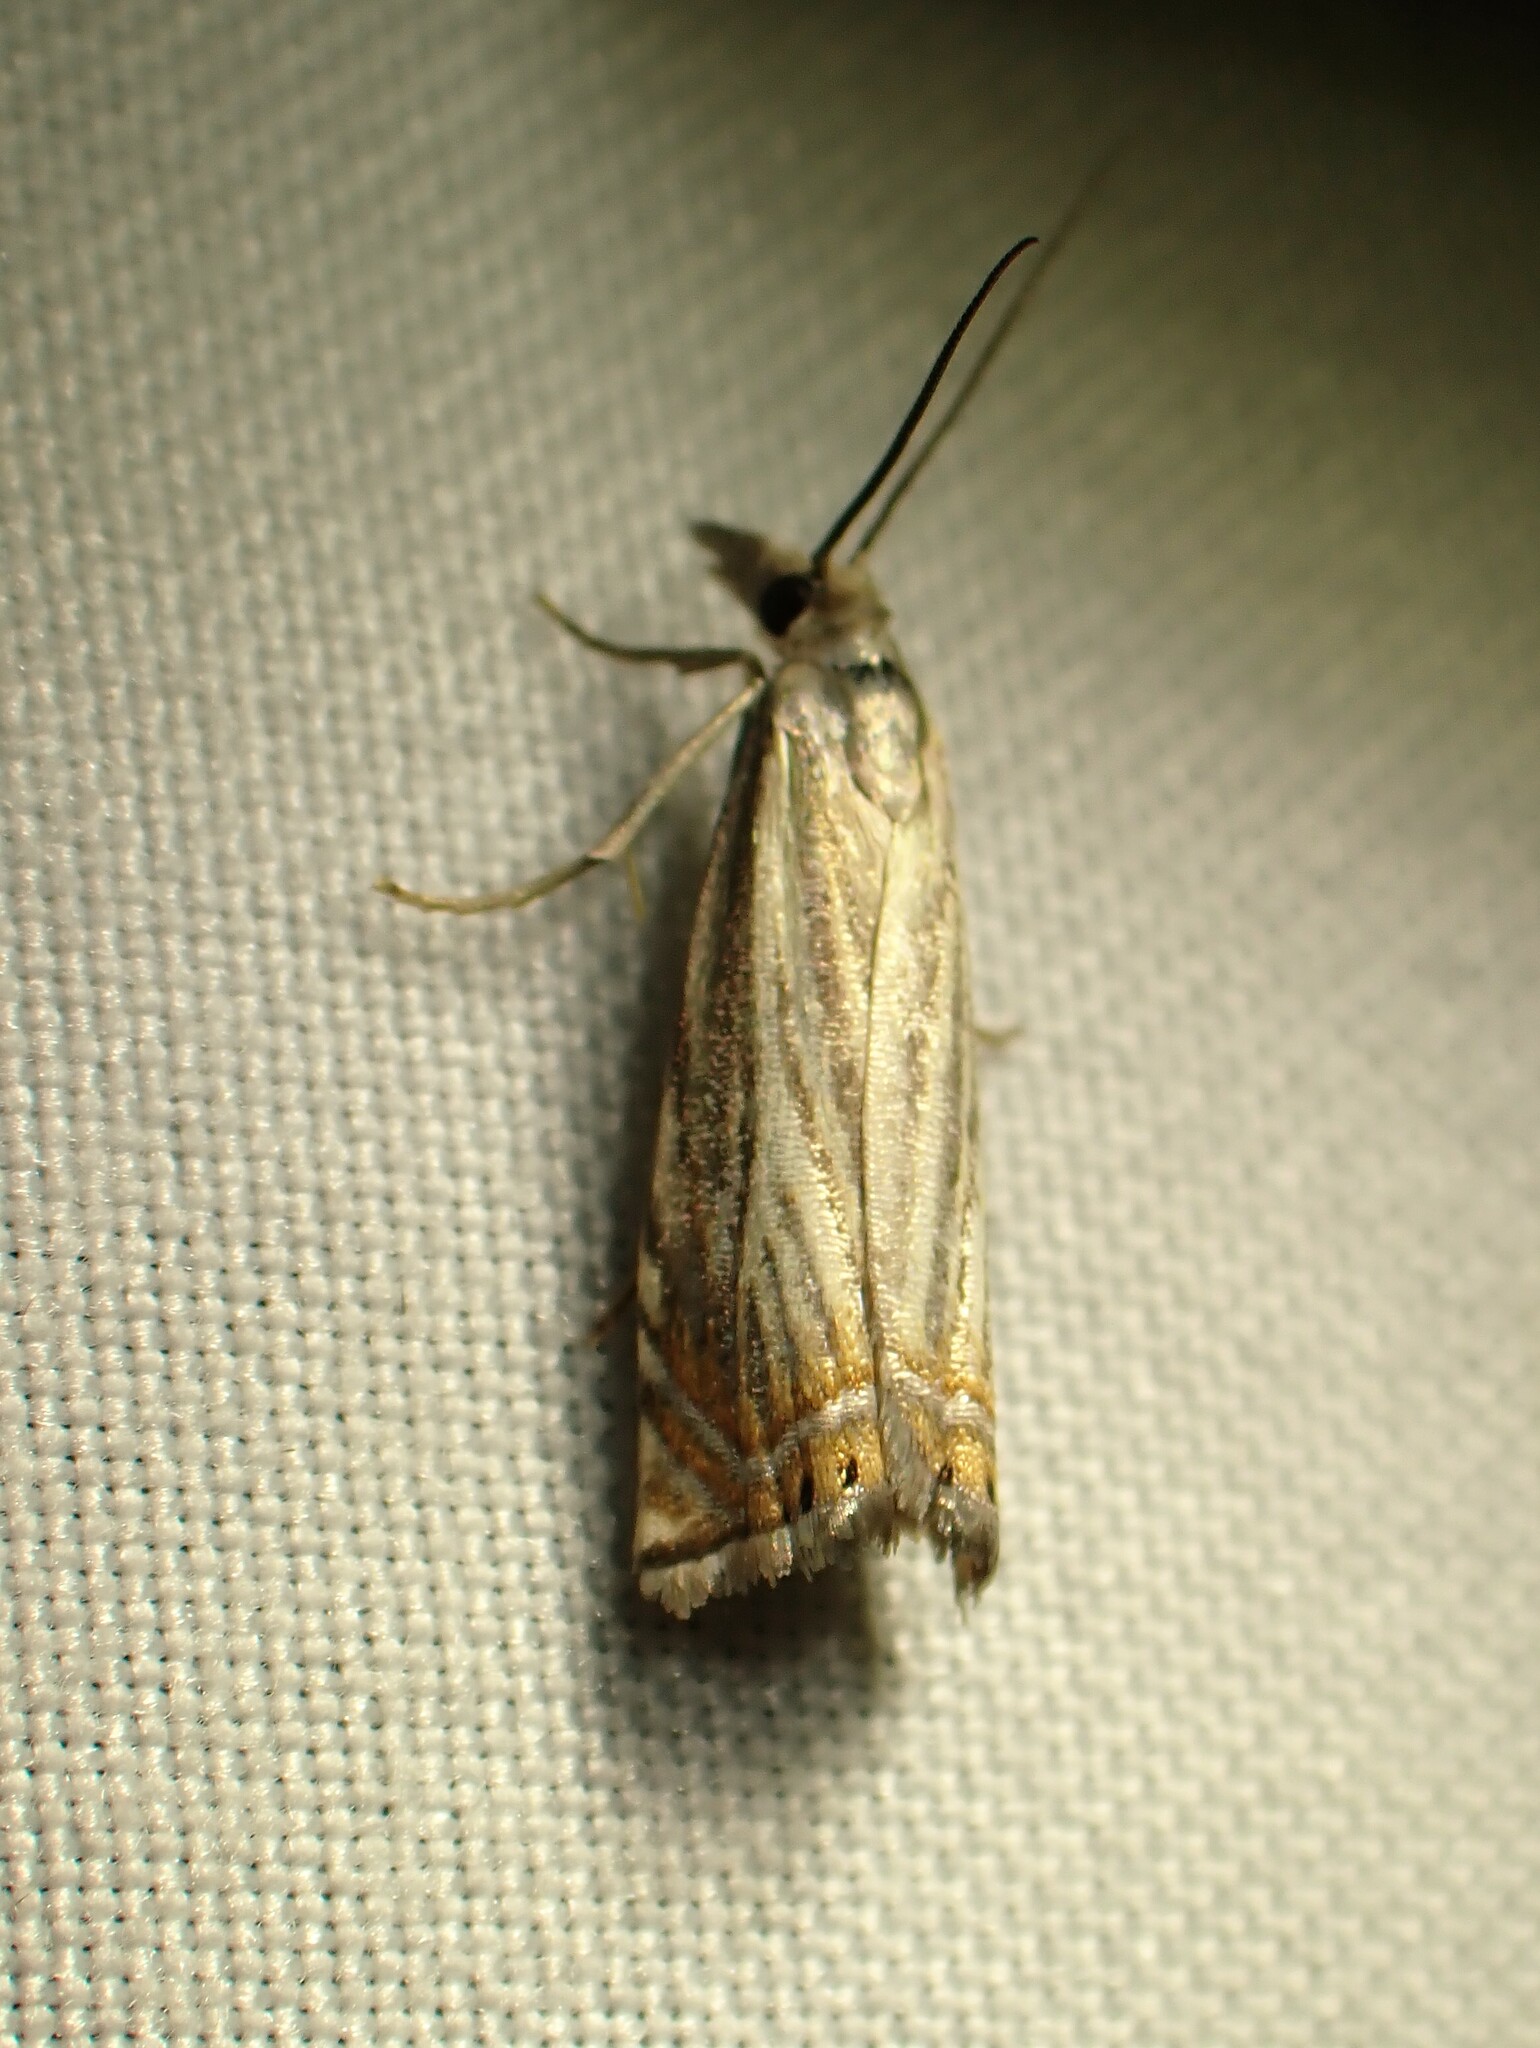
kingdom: Animalia
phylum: Arthropoda
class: Insecta
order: Lepidoptera
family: Crambidae
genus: Chrysoteuchia
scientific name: Chrysoteuchia topiarius
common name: Topiary grass-veneer
